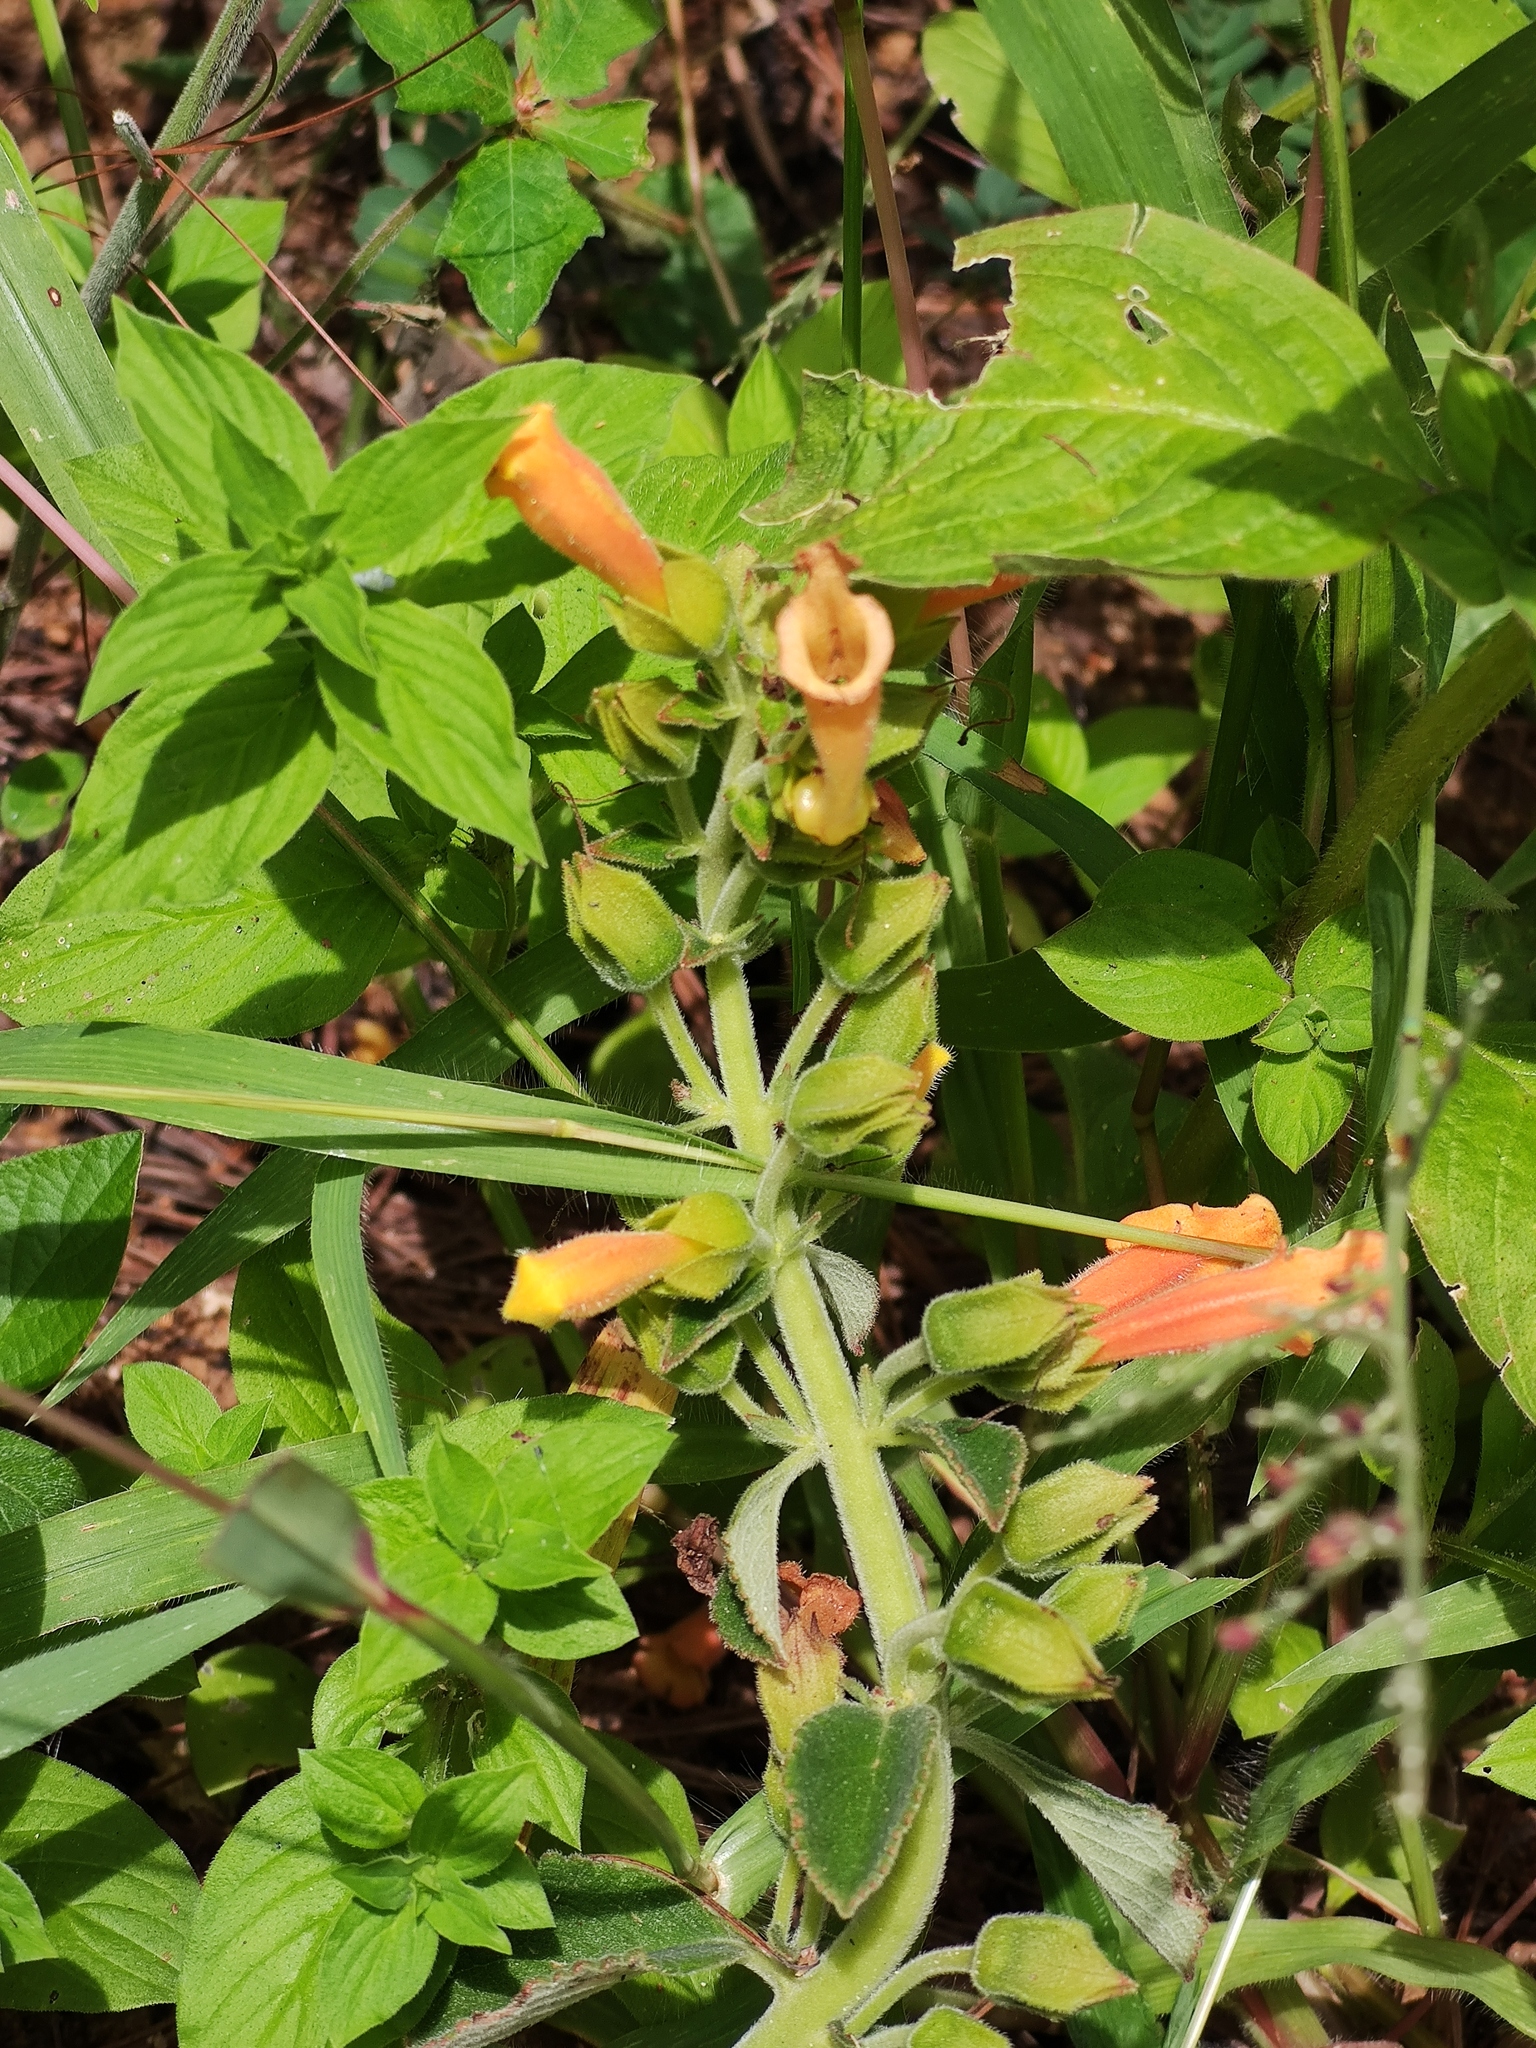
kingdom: Plantae
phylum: Tracheophyta
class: Magnoliopsida
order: Lamiales
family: Gesneriaceae
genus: Sinningia
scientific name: Sinningia incarnata
